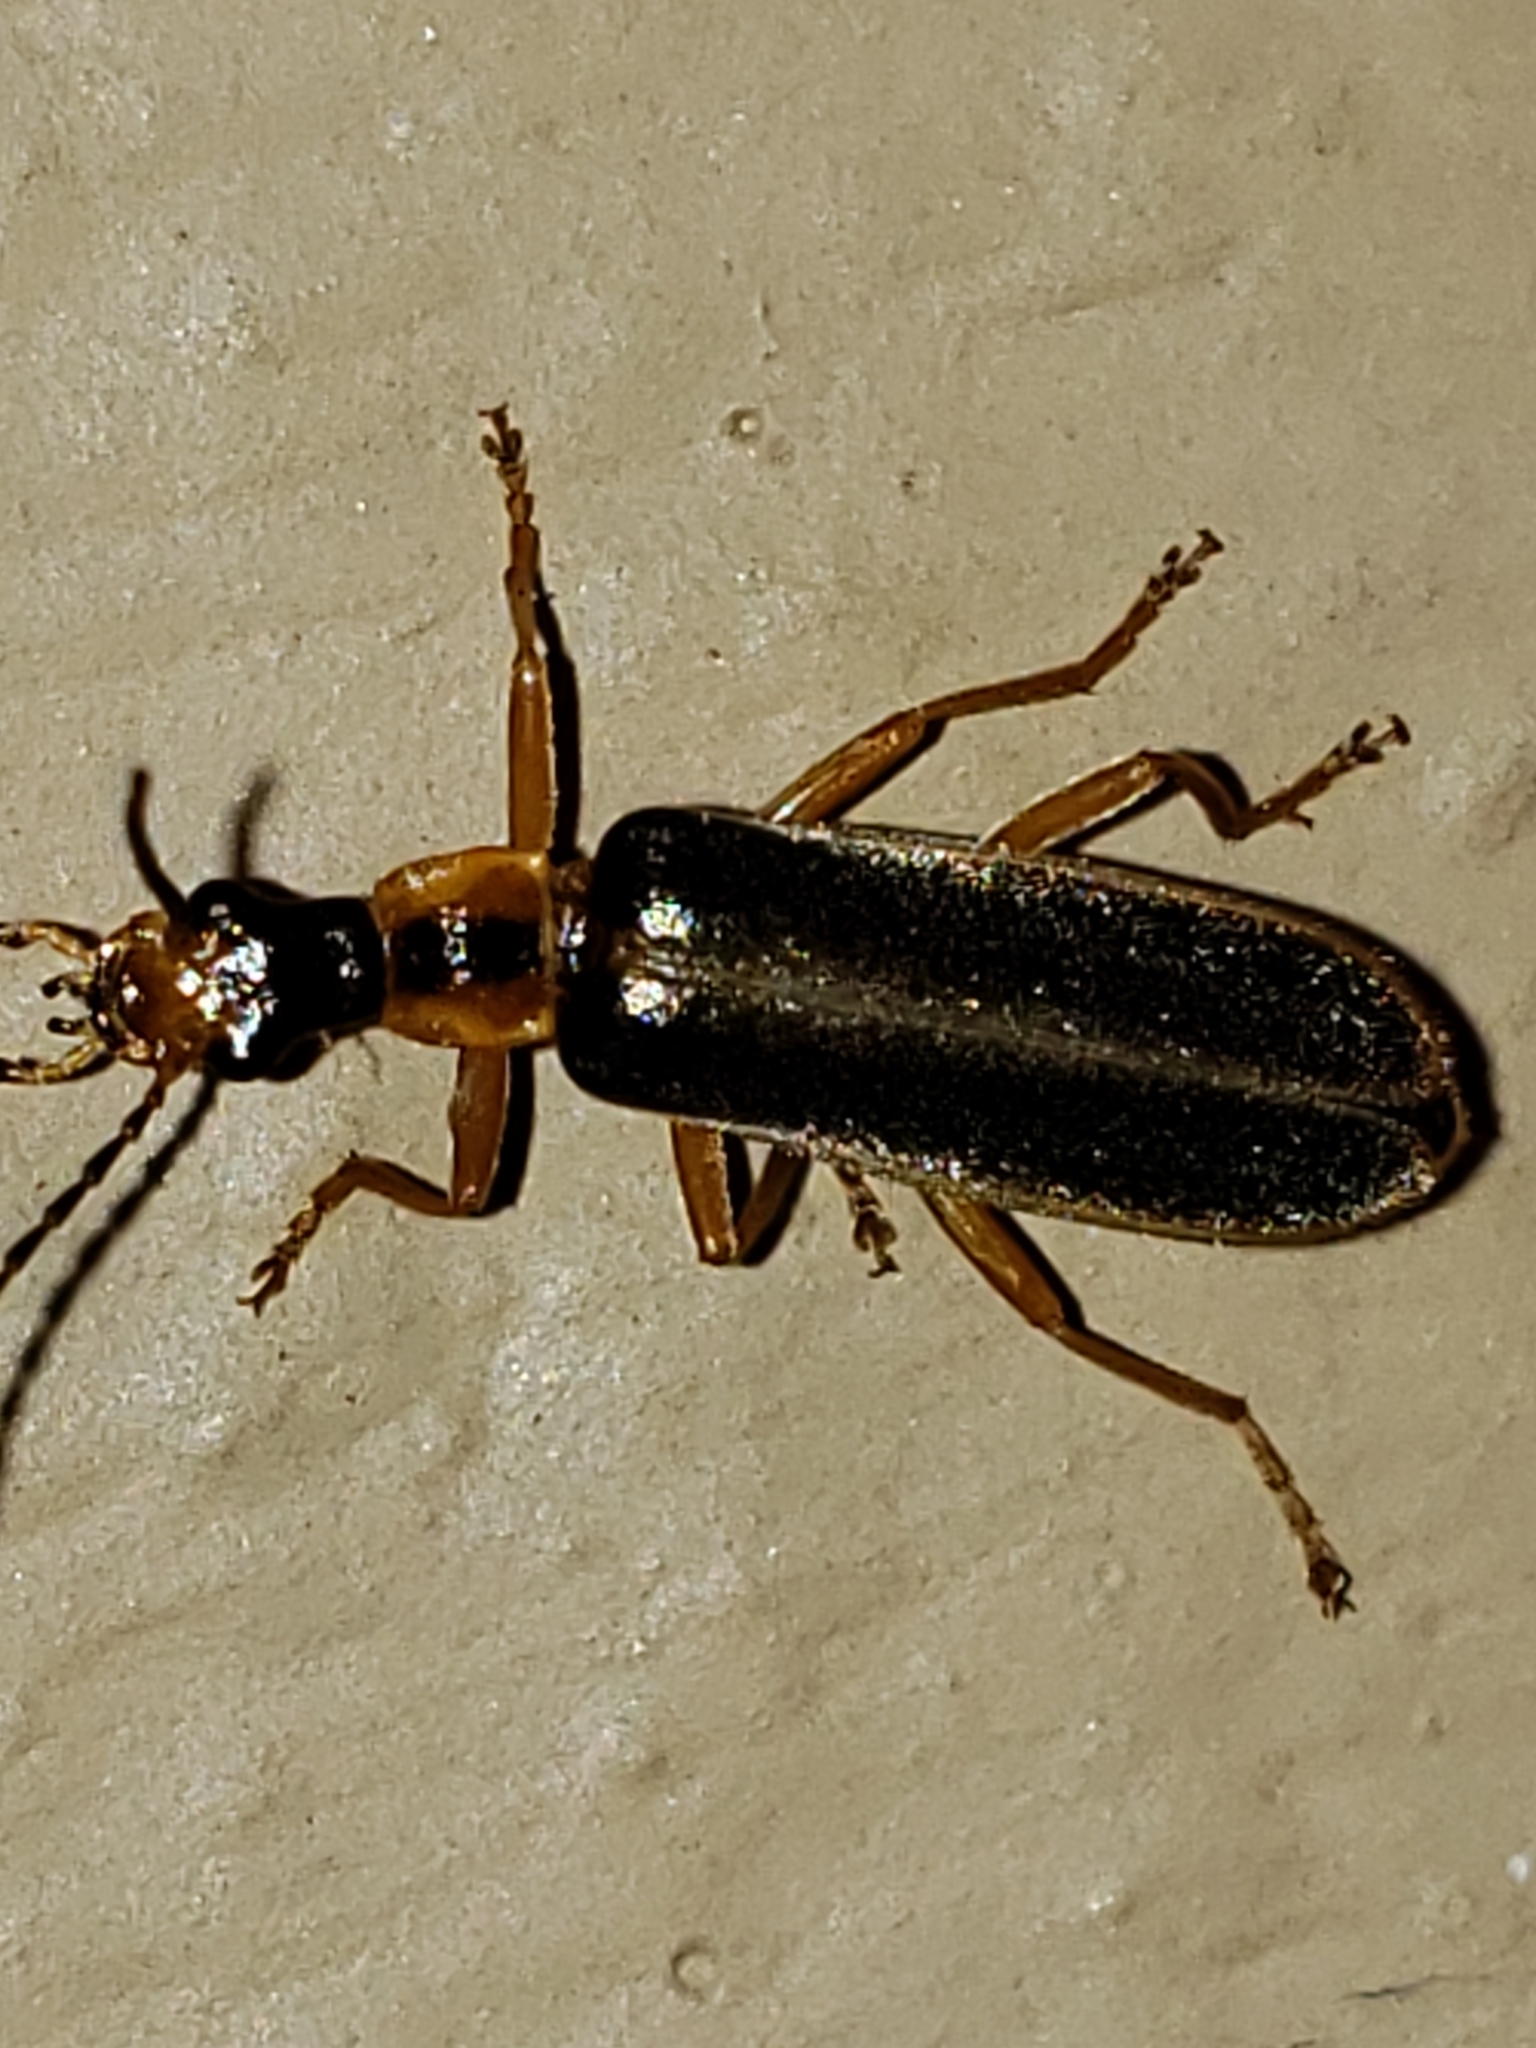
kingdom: Animalia
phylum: Arthropoda
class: Insecta
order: Coleoptera
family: Cantharidae
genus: Podabrus
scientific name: Podabrus brunnicollis
